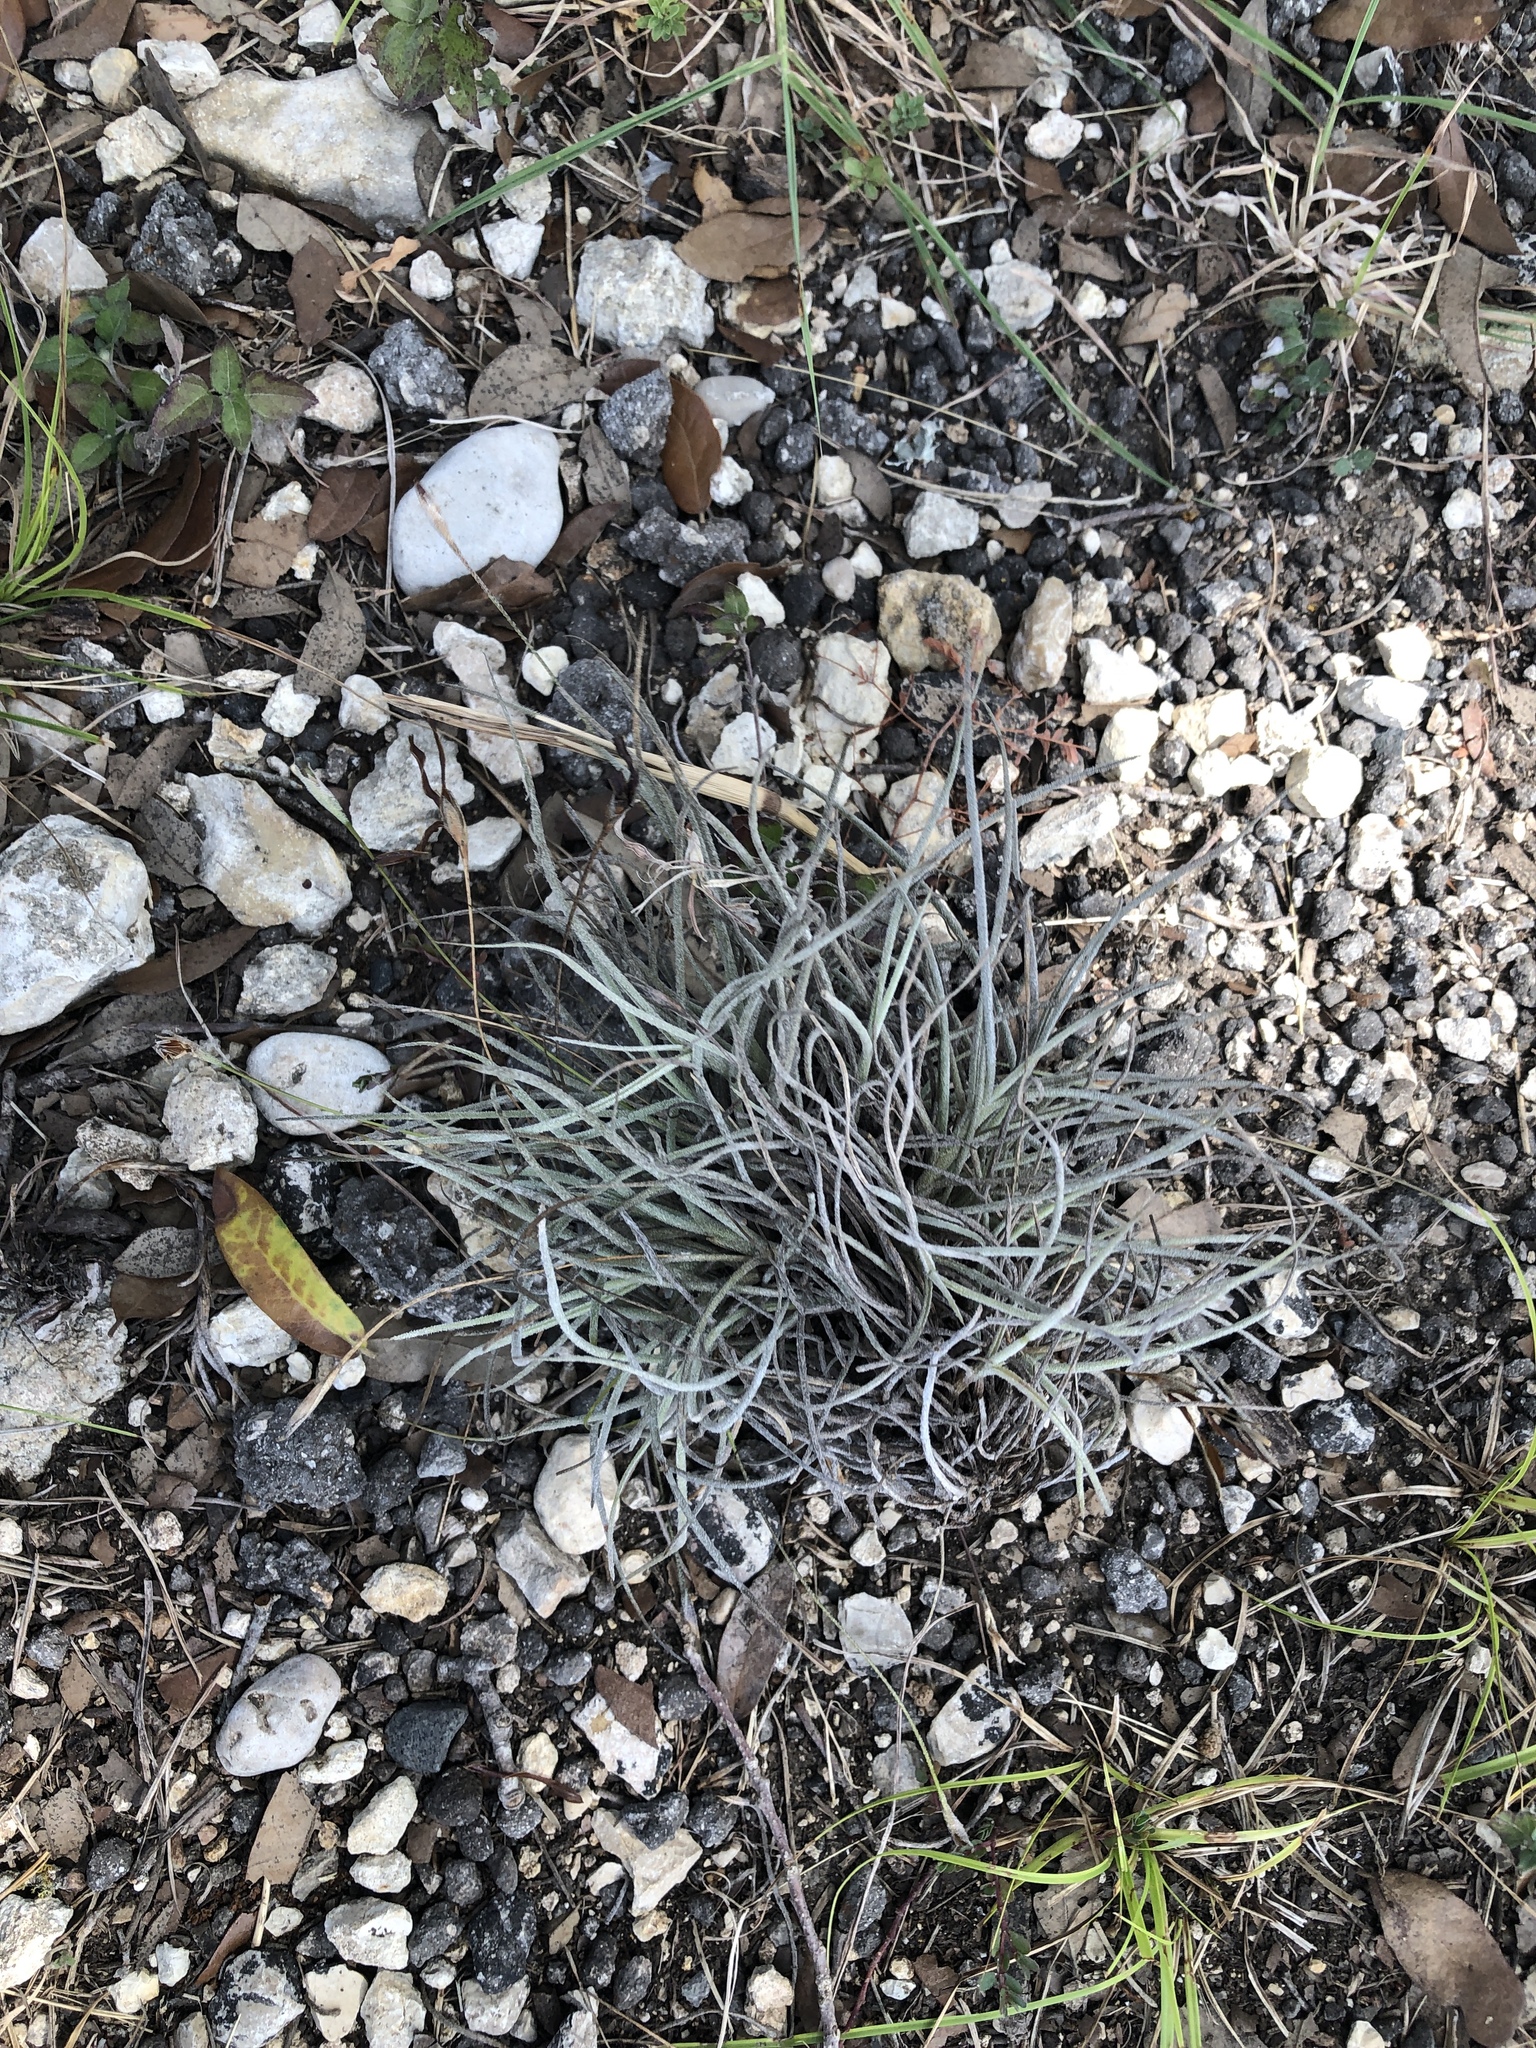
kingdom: Plantae
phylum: Tracheophyta
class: Liliopsida
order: Poales
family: Bromeliaceae
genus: Tillandsia
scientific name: Tillandsia recurvata
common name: Small ballmoss
